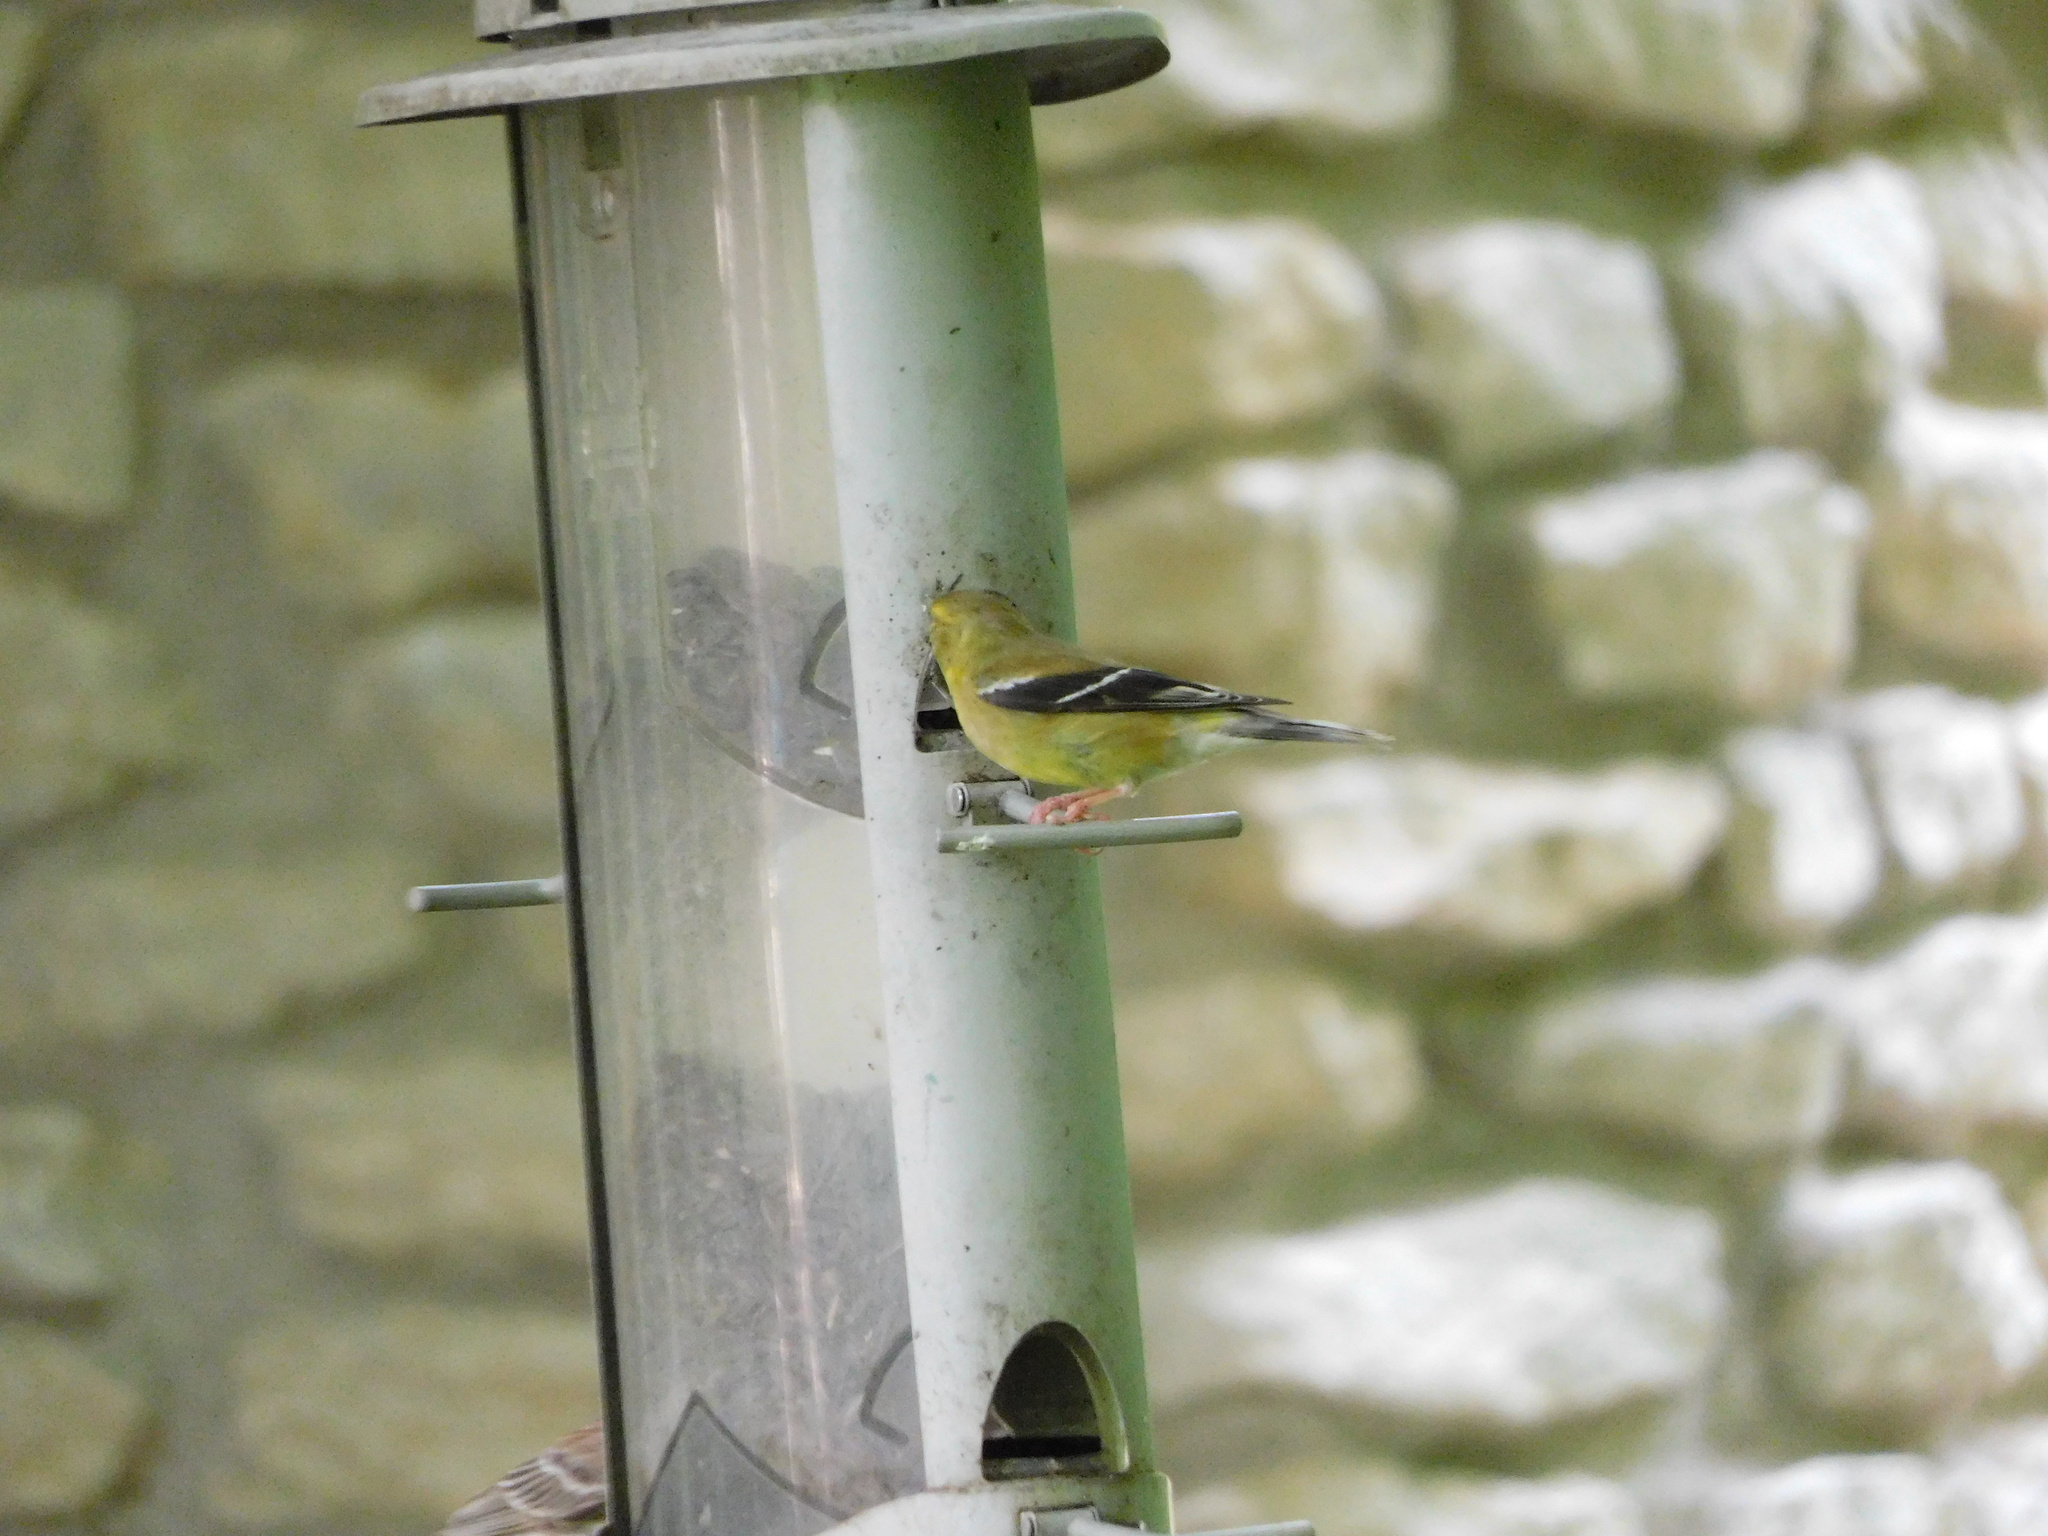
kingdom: Animalia
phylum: Chordata
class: Aves
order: Passeriformes
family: Fringillidae
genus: Spinus
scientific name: Spinus tristis
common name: American goldfinch
